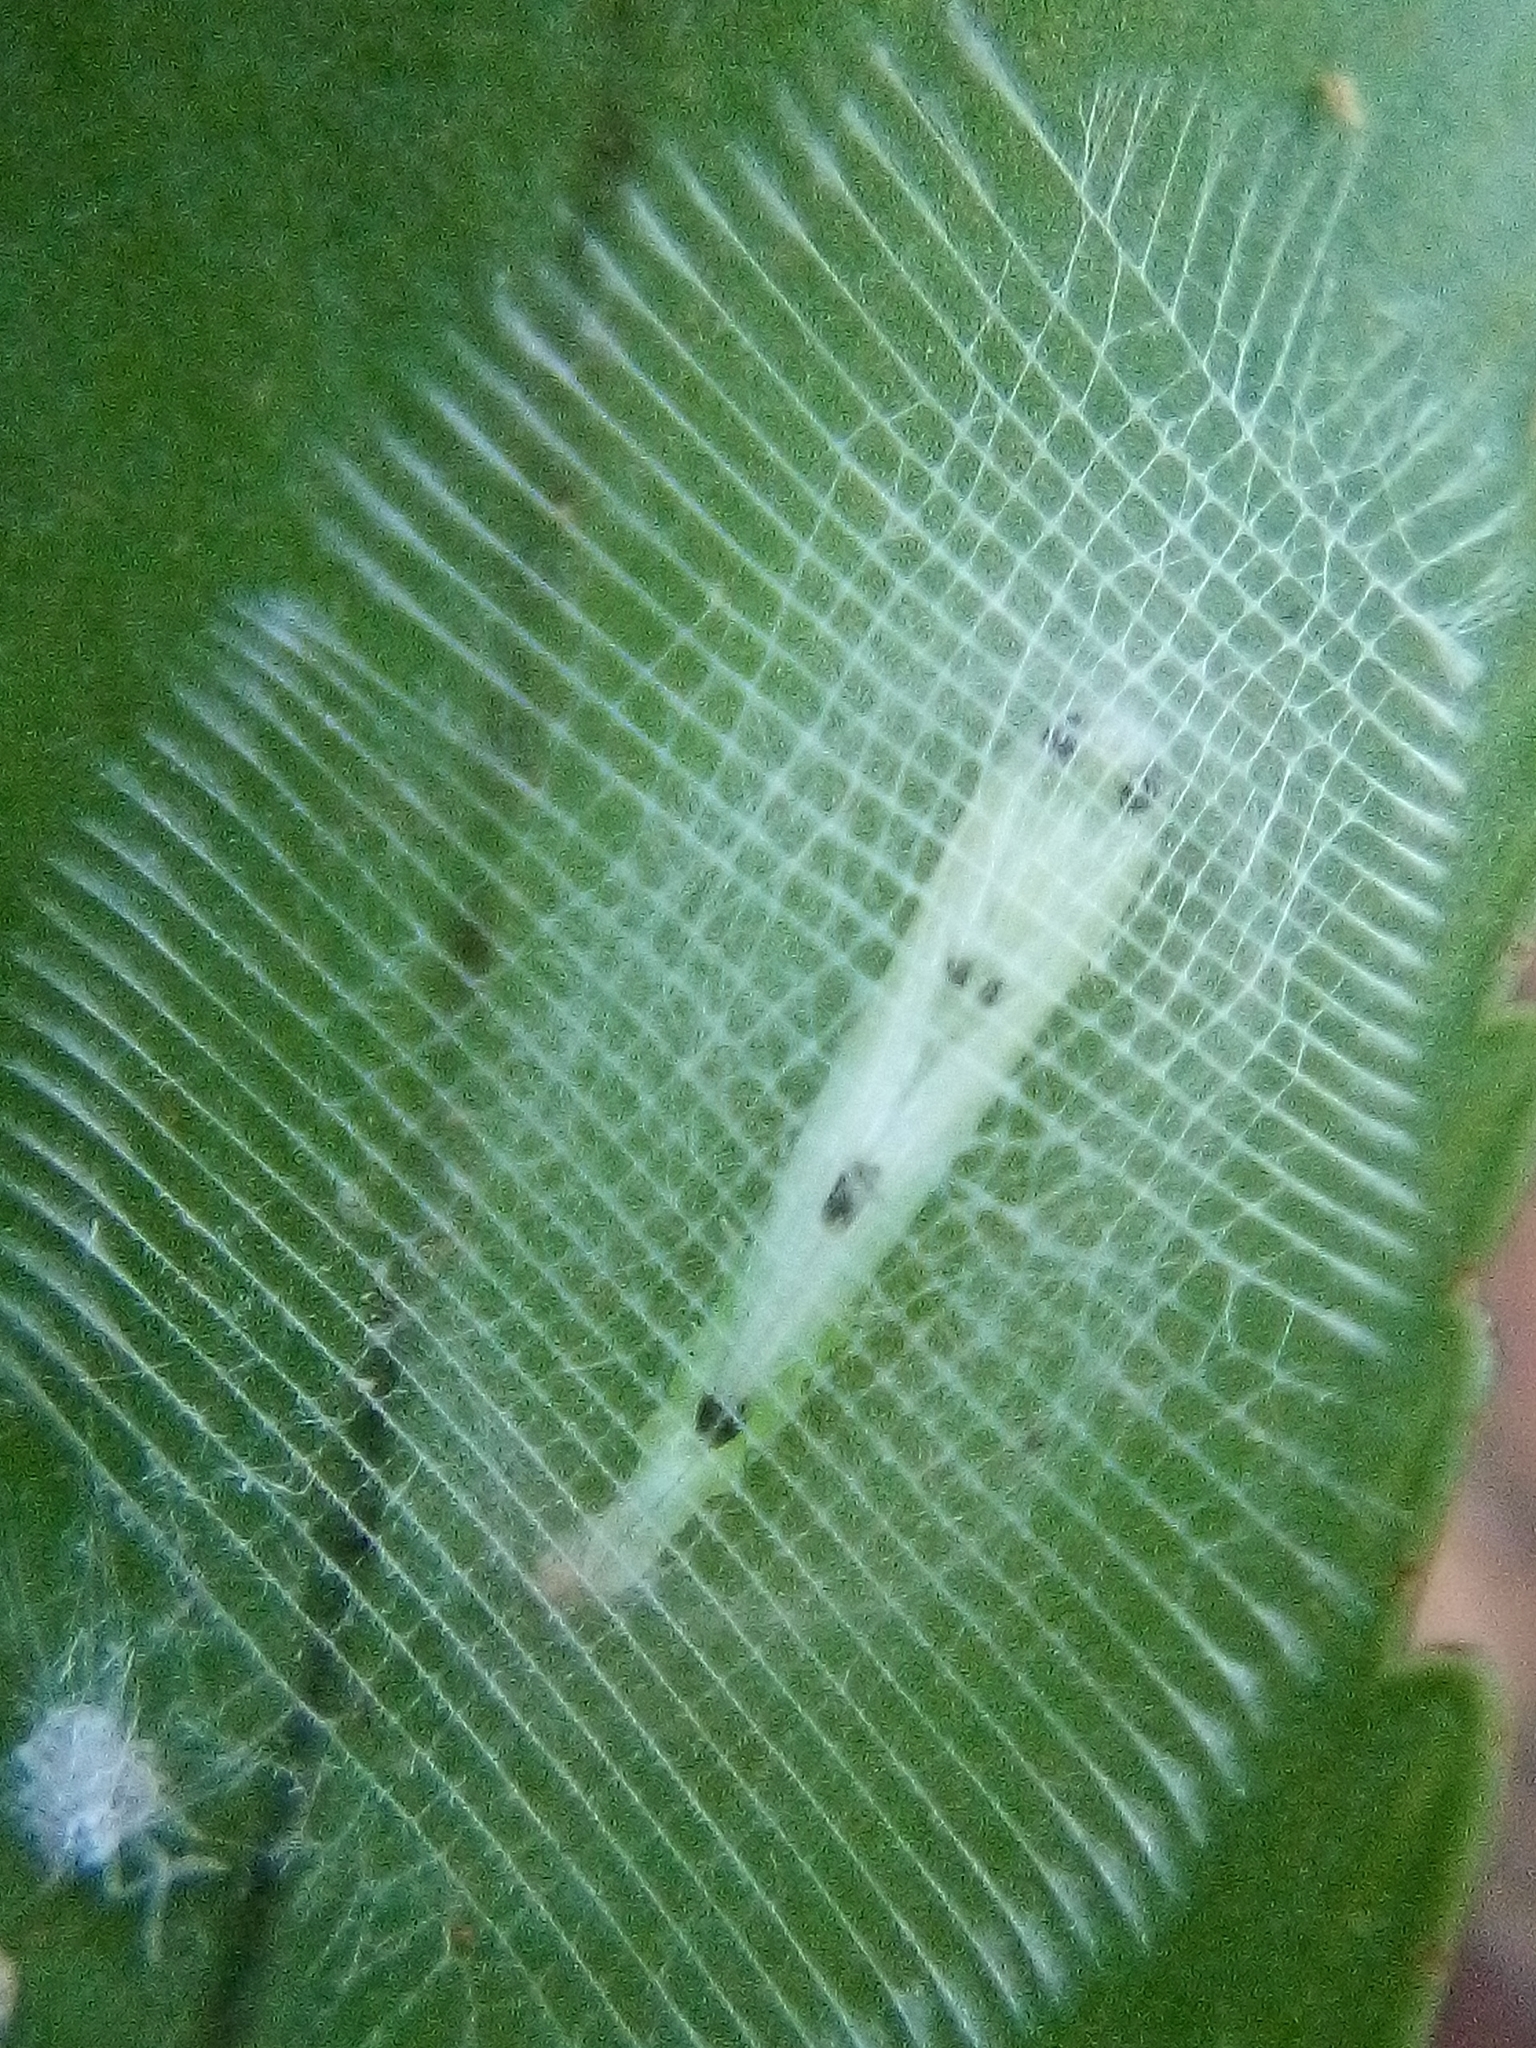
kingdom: Animalia
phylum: Arthropoda
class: Insecta
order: Lepidoptera
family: Roeslerstammiidae
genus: Vanicela
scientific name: Vanicela disjunctella
